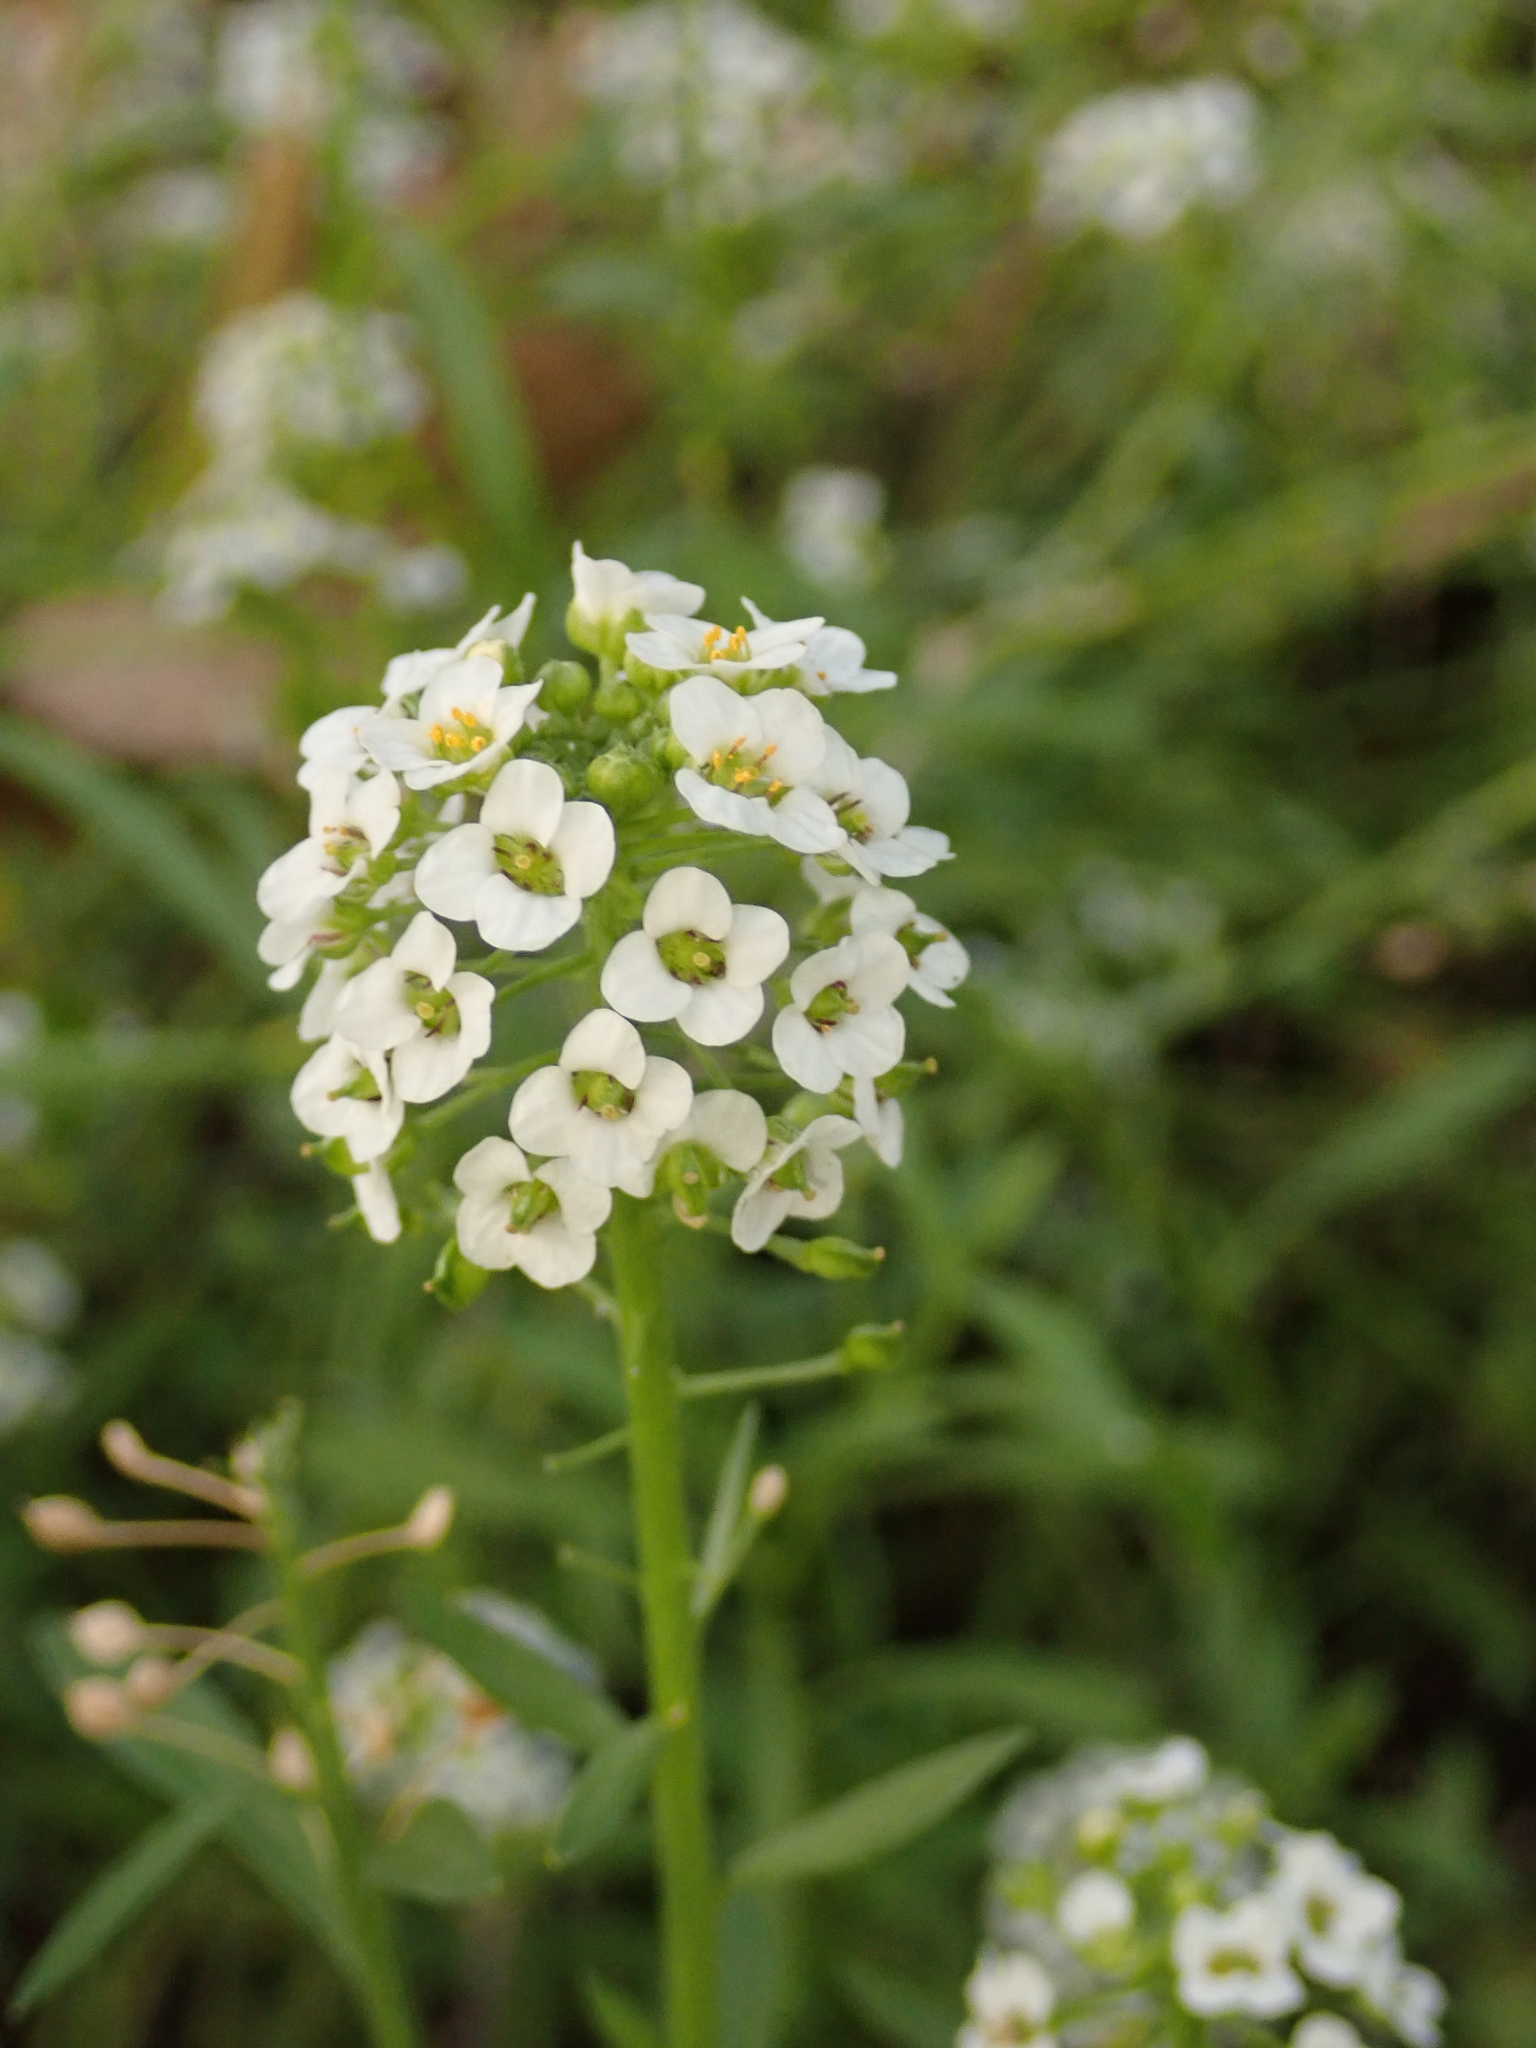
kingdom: Plantae
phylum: Tracheophyta
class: Magnoliopsida
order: Brassicales
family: Brassicaceae
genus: Lobularia
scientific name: Lobularia maritima
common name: Sweet alison
